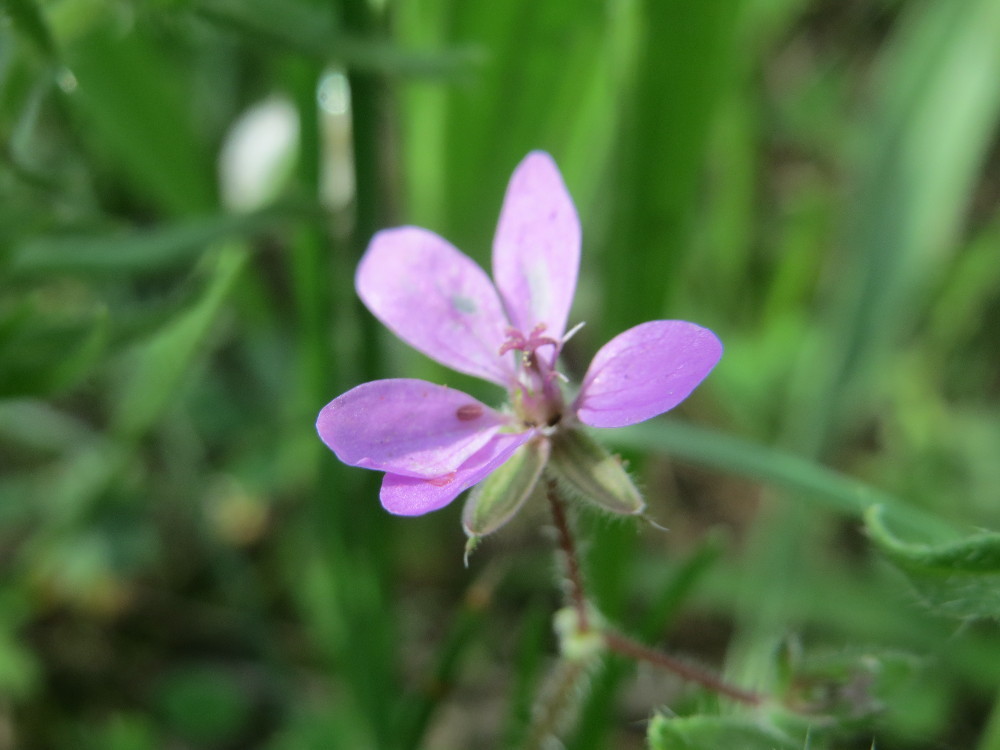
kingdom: Plantae
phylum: Tracheophyta
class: Magnoliopsida
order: Geraniales
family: Geraniaceae
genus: Erodium
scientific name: Erodium cicutarium
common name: Common stork's-bill
